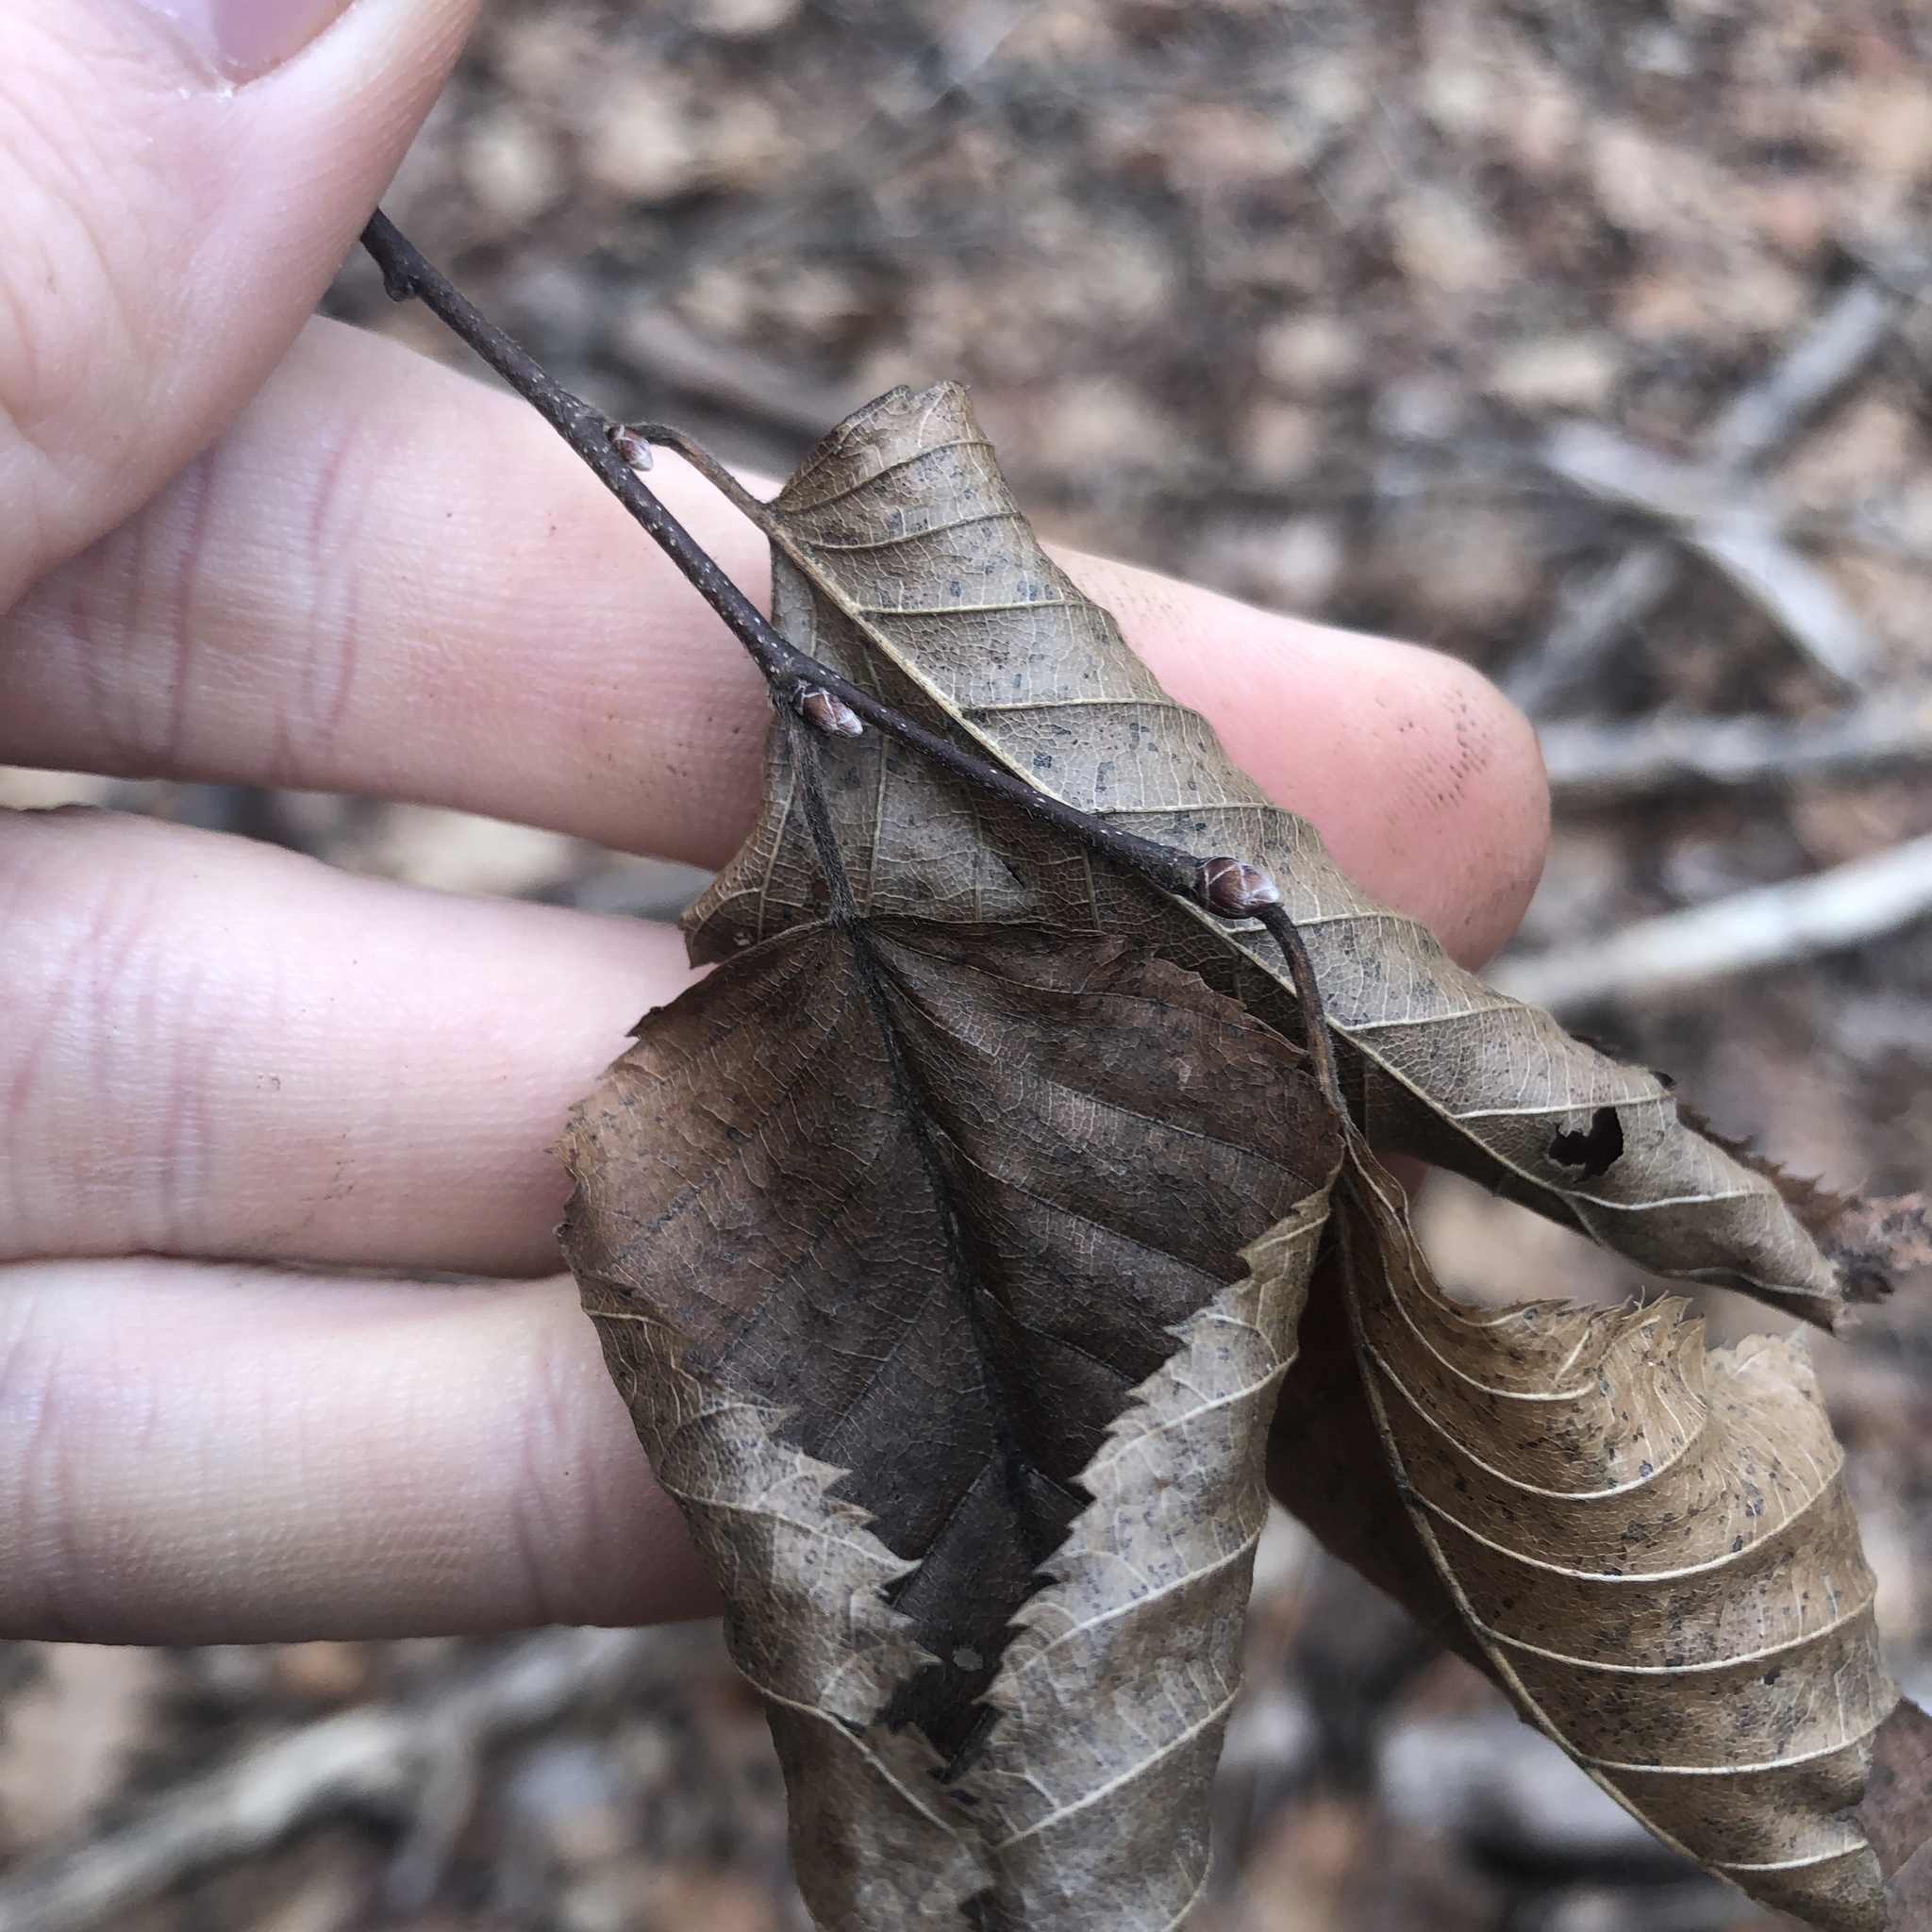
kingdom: Plantae
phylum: Tracheophyta
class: Magnoliopsida
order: Fagales
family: Betulaceae
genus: Carpinus
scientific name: Carpinus caroliniana
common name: American hornbeam
